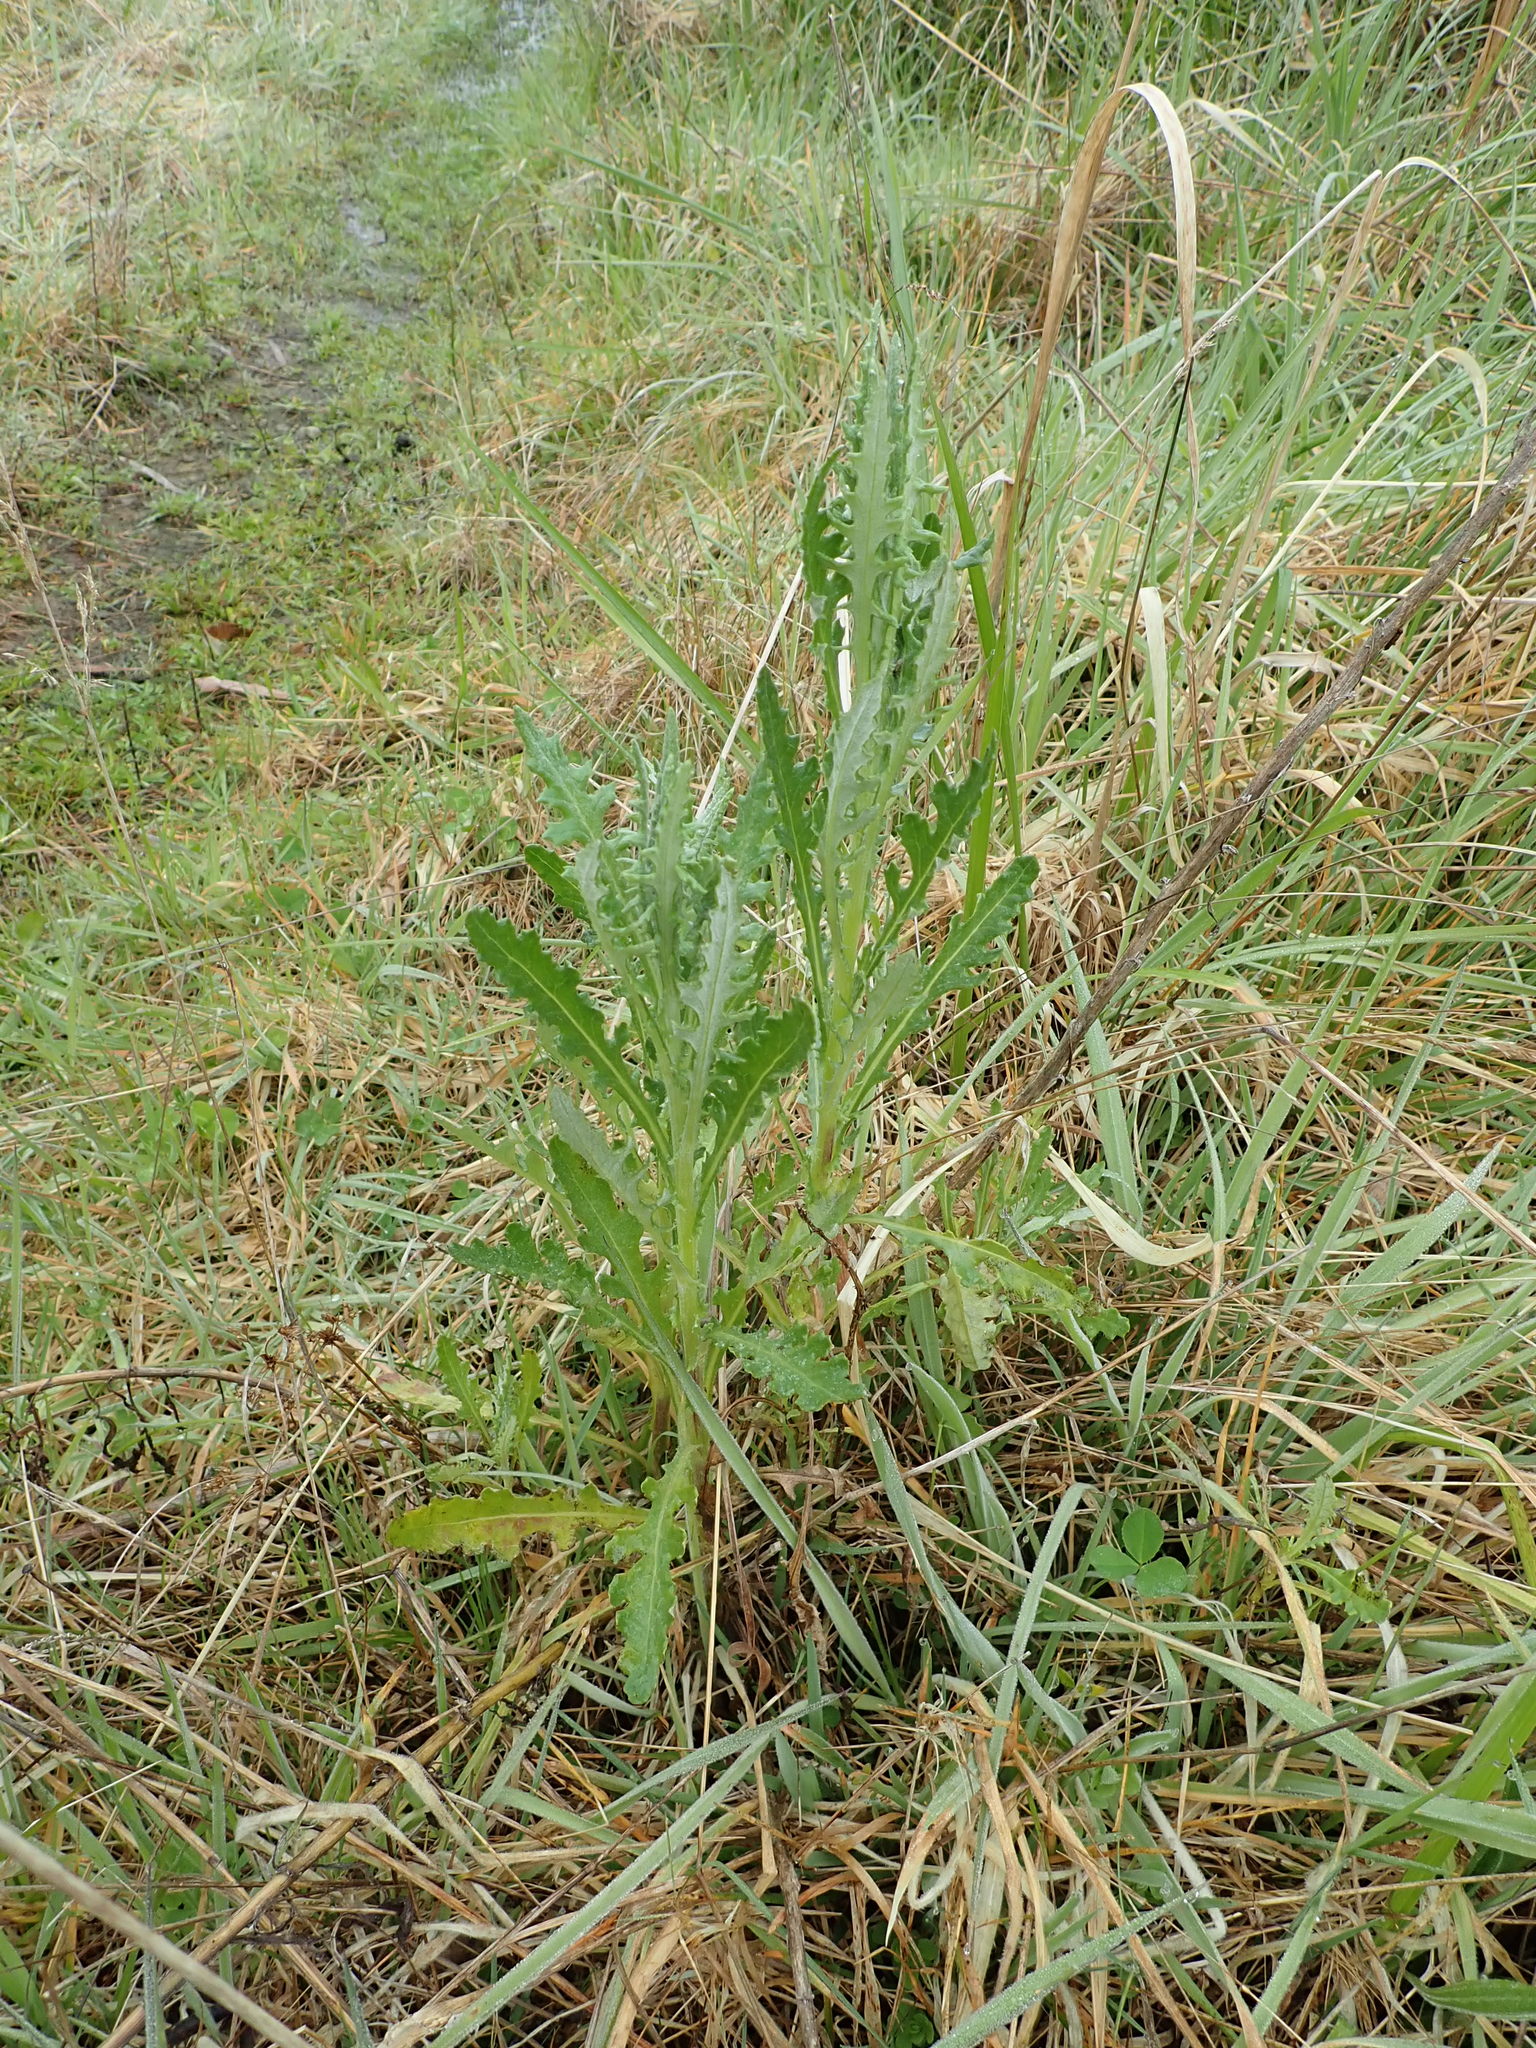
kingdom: Plantae
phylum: Tracheophyta
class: Magnoliopsida
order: Asterales
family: Asteraceae
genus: Senecio
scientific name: Senecio glomeratus
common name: Cutleaf burnweed
